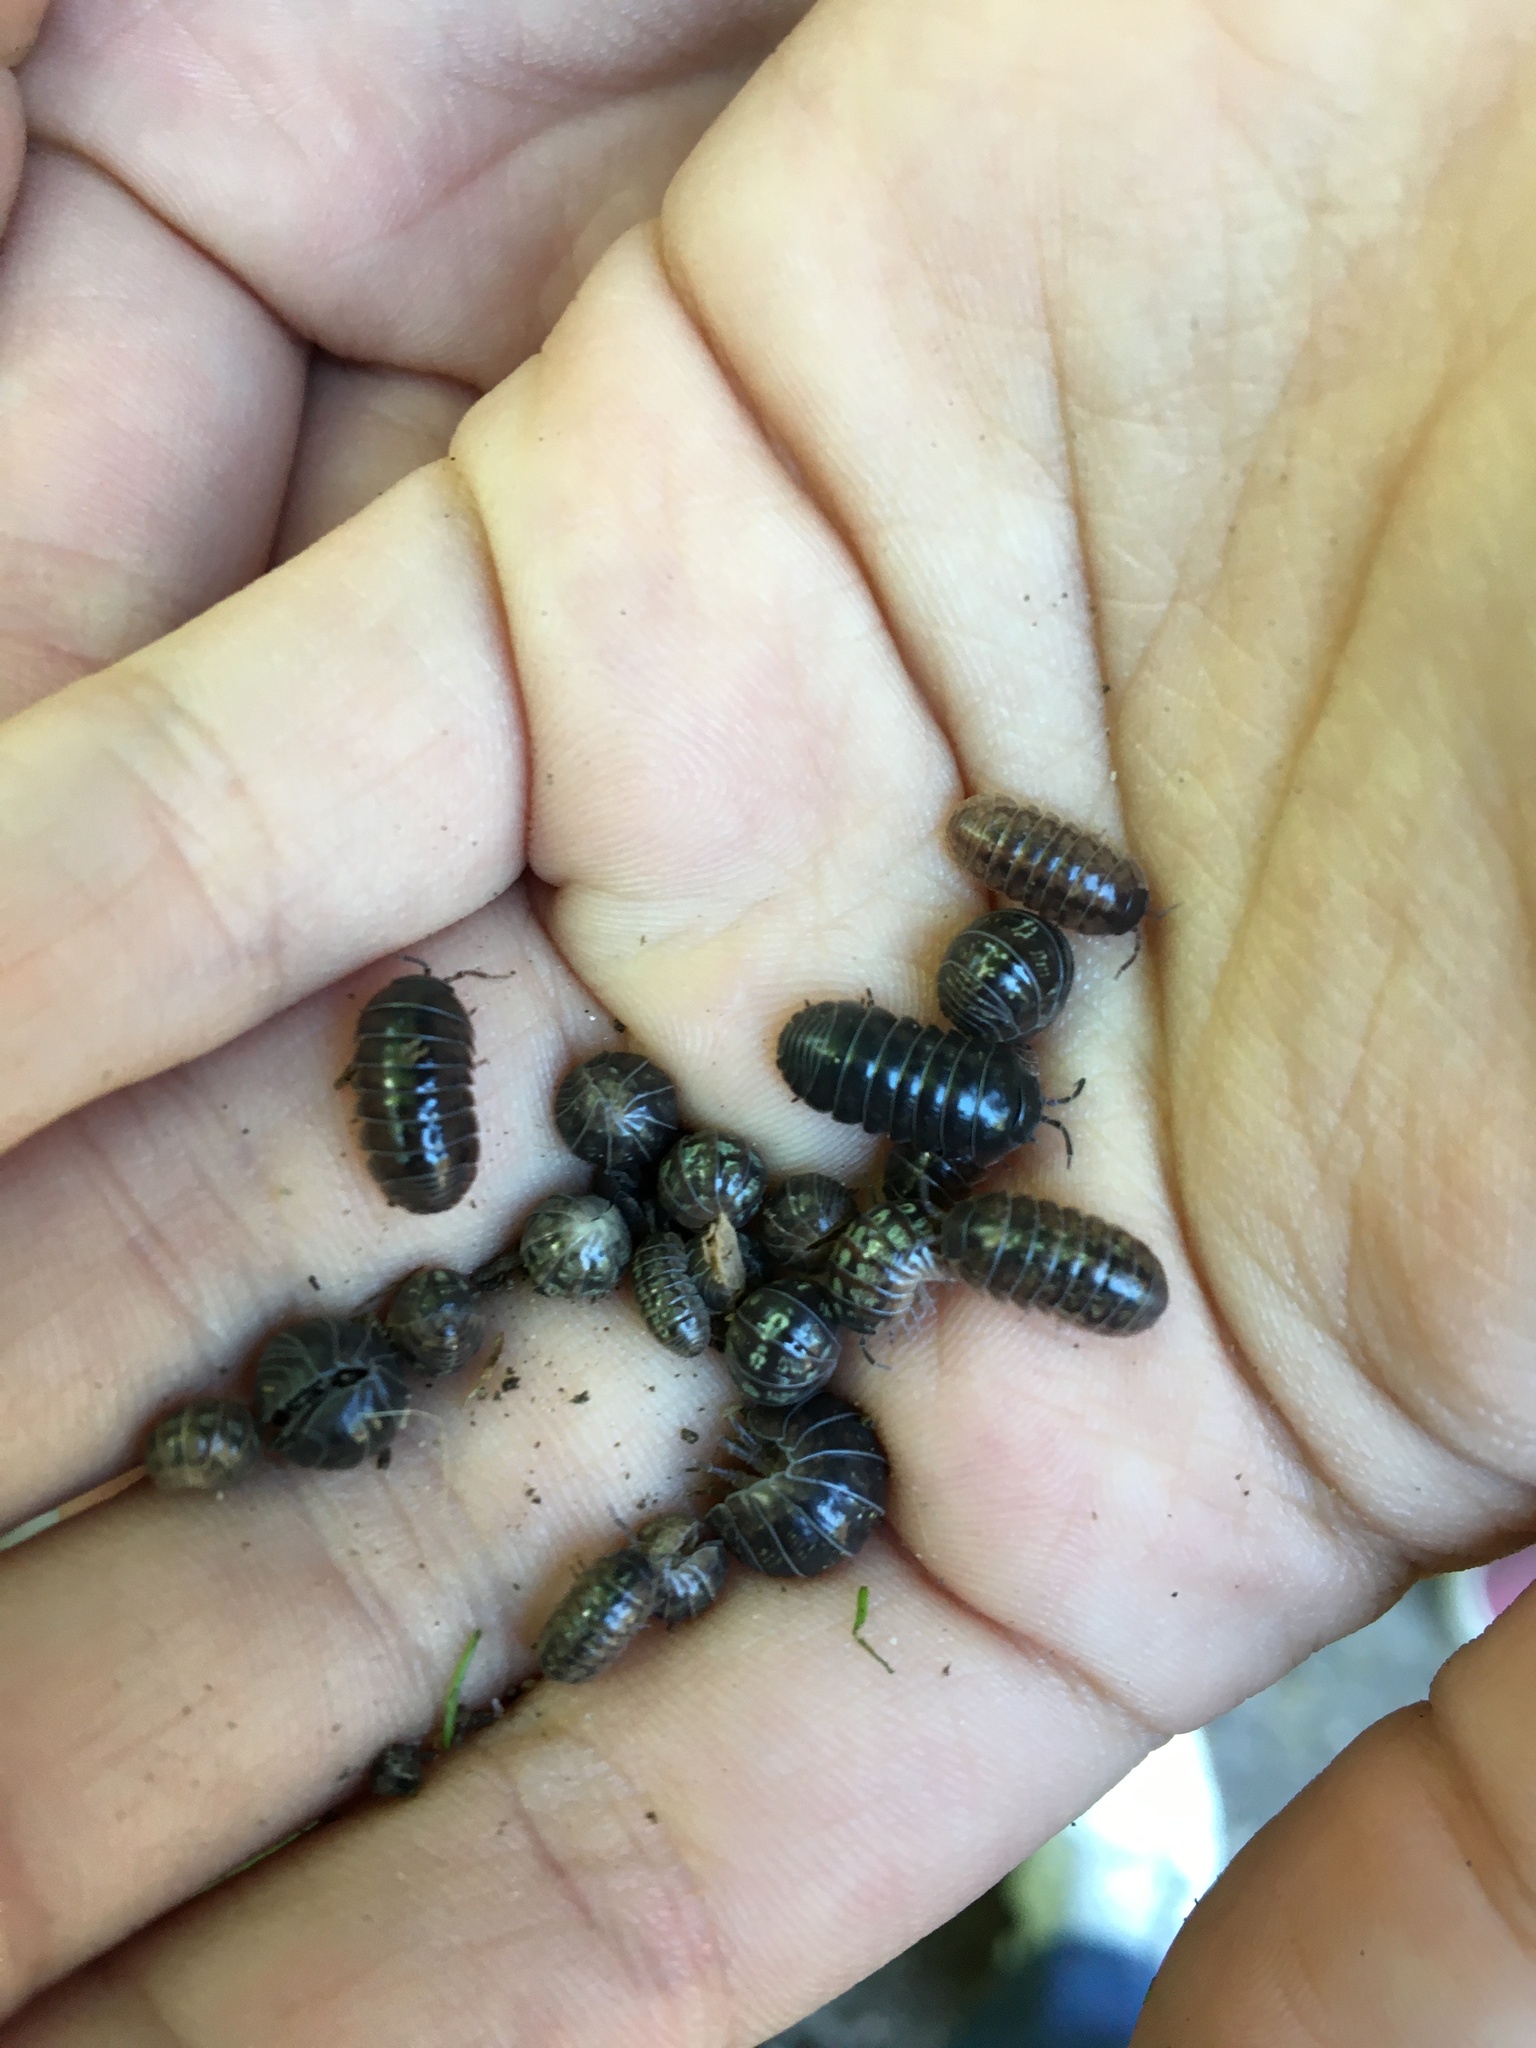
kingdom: Animalia
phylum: Arthropoda
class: Malacostraca
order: Isopoda
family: Armadillidiidae
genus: Armadillidium
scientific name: Armadillidium vulgare
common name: Common pill woodlouse
